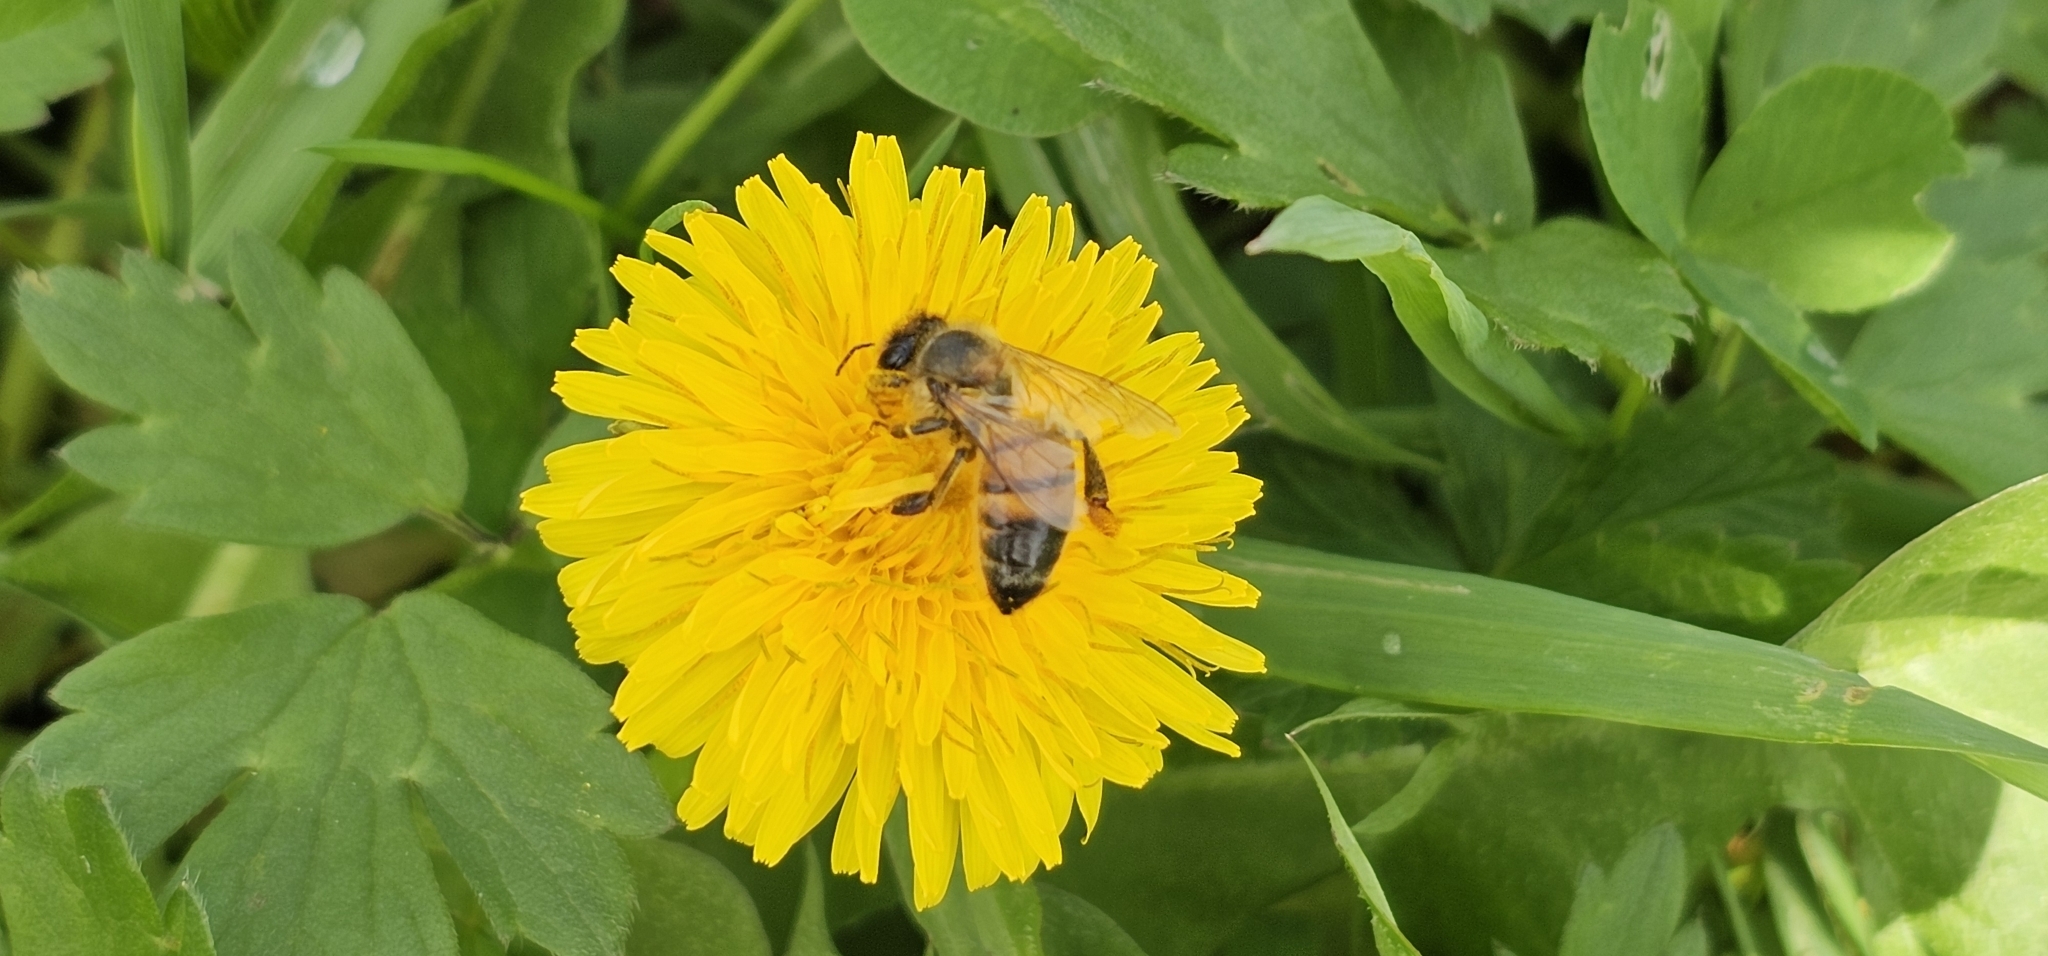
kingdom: Animalia
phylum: Arthropoda
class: Insecta
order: Hymenoptera
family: Apidae
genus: Apis
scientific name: Apis mellifera
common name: Honey bee
